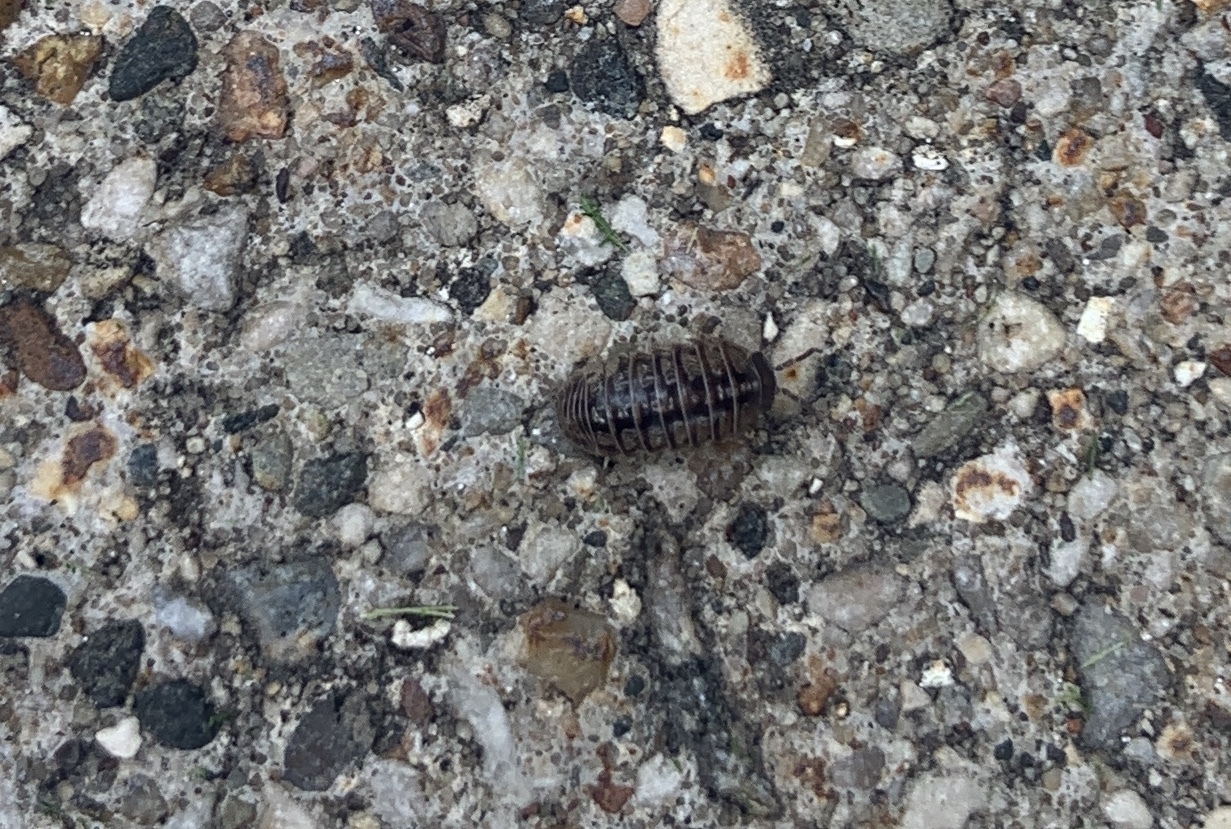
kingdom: Animalia
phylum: Arthropoda
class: Malacostraca
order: Isopoda
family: Armadillidiidae
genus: Armadillidium
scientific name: Armadillidium vulgare
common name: Common pill woodlouse
